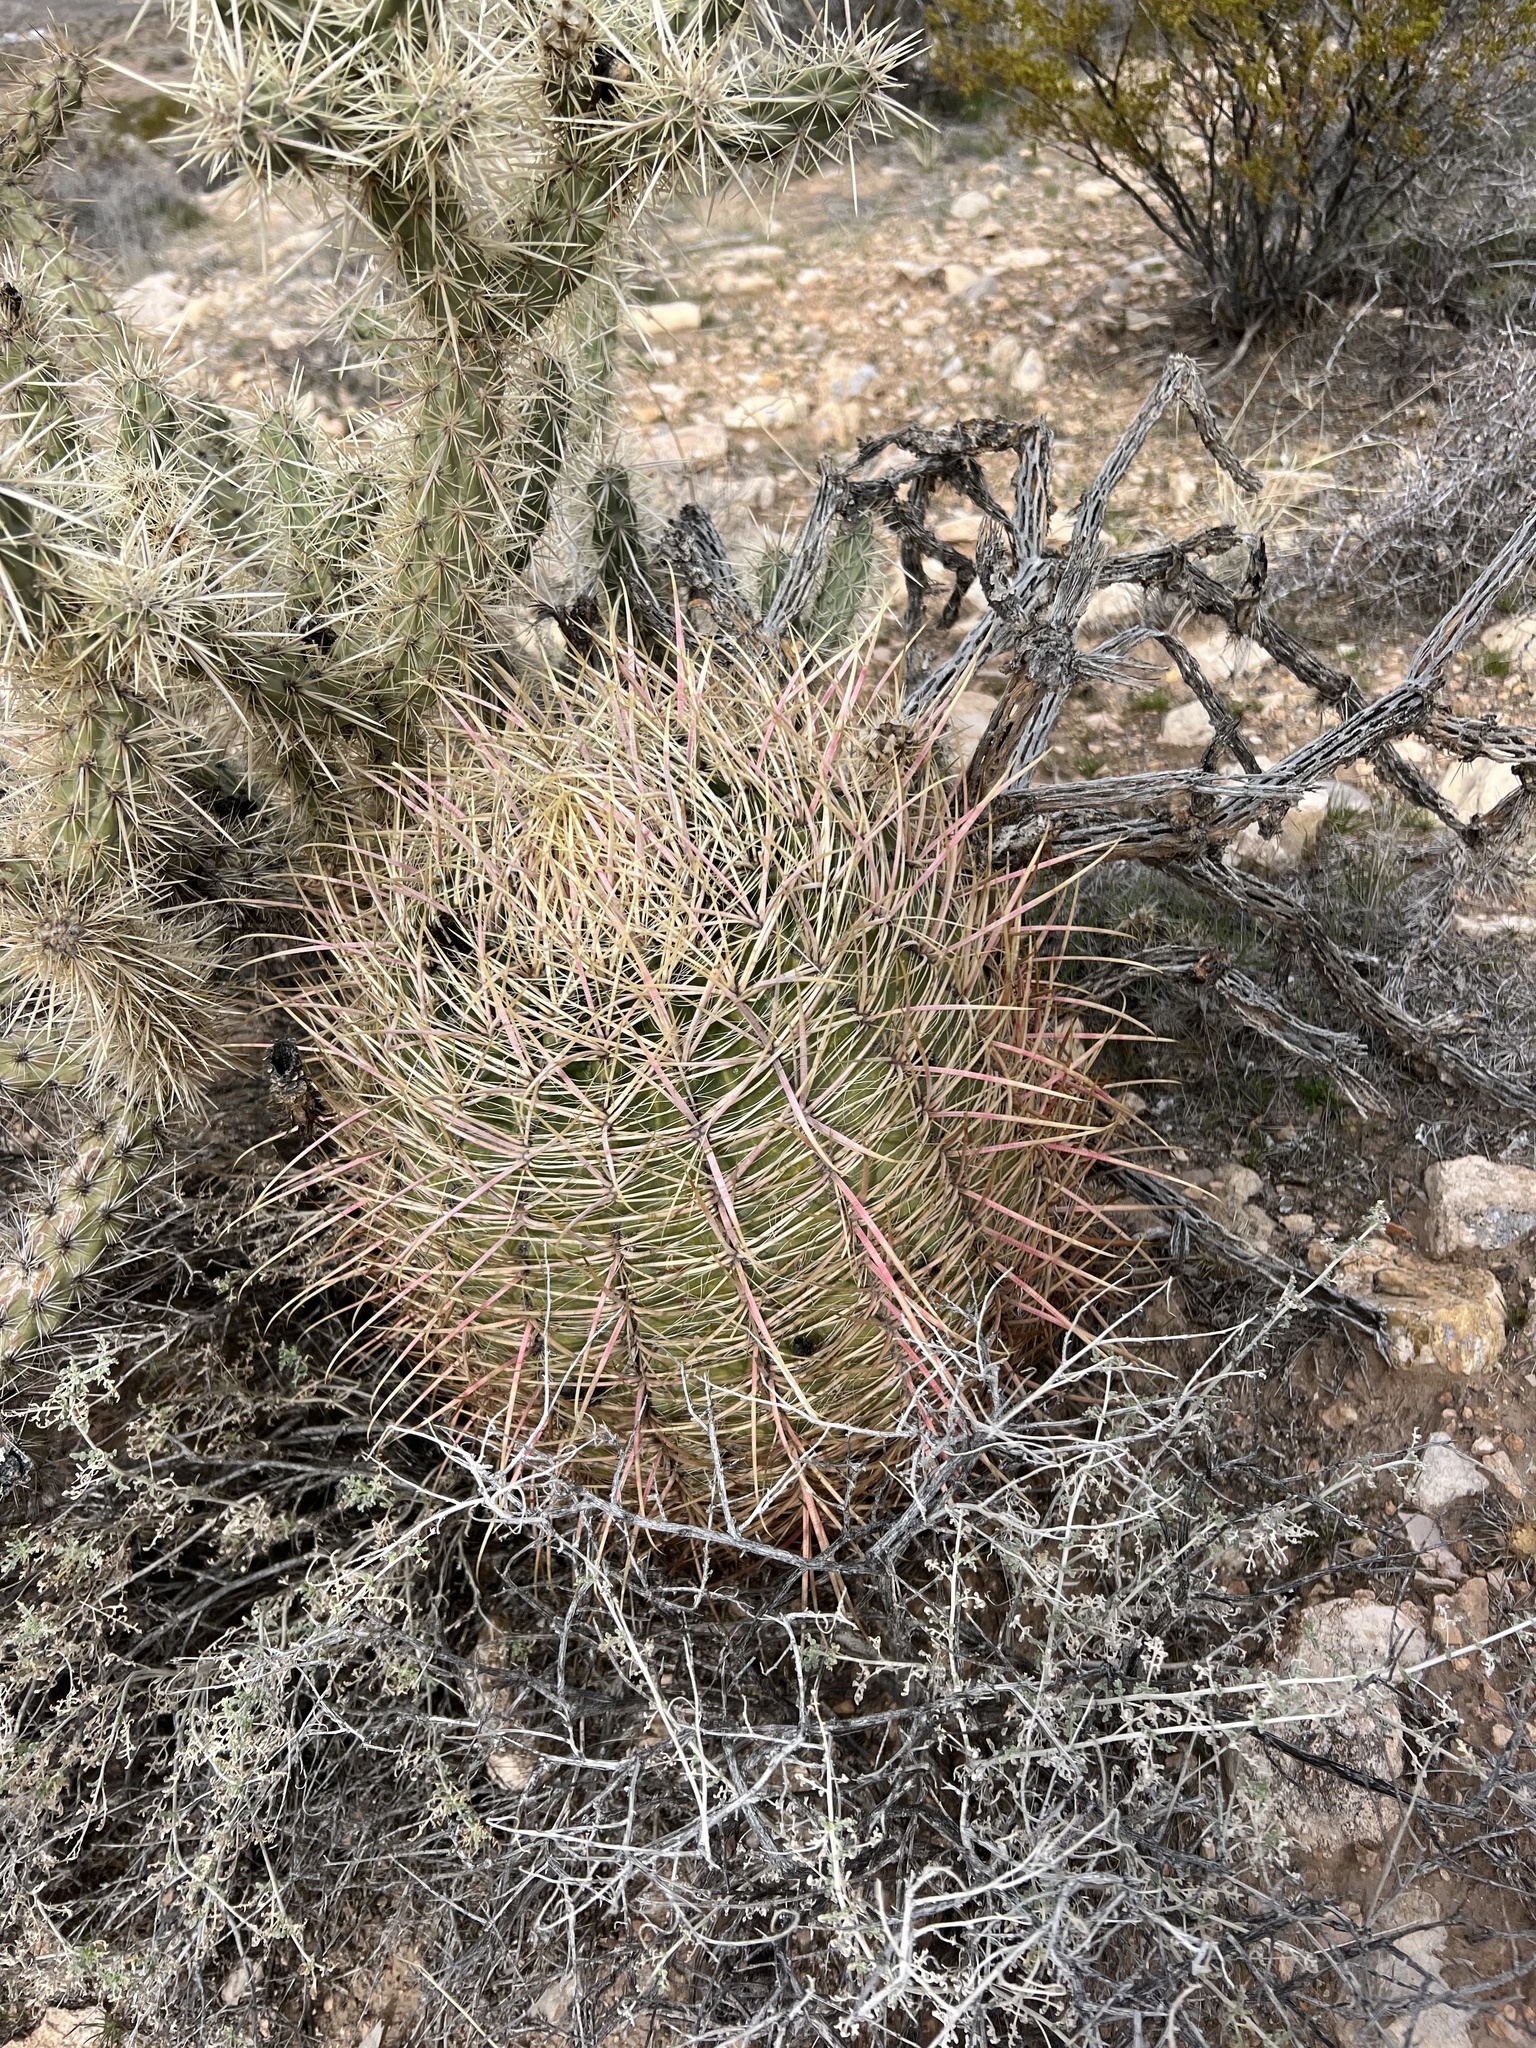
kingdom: Plantae
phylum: Tracheophyta
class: Magnoliopsida
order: Caryophyllales
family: Cactaceae
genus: Ferocactus
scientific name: Ferocactus cylindraceus
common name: California barrel cactus
